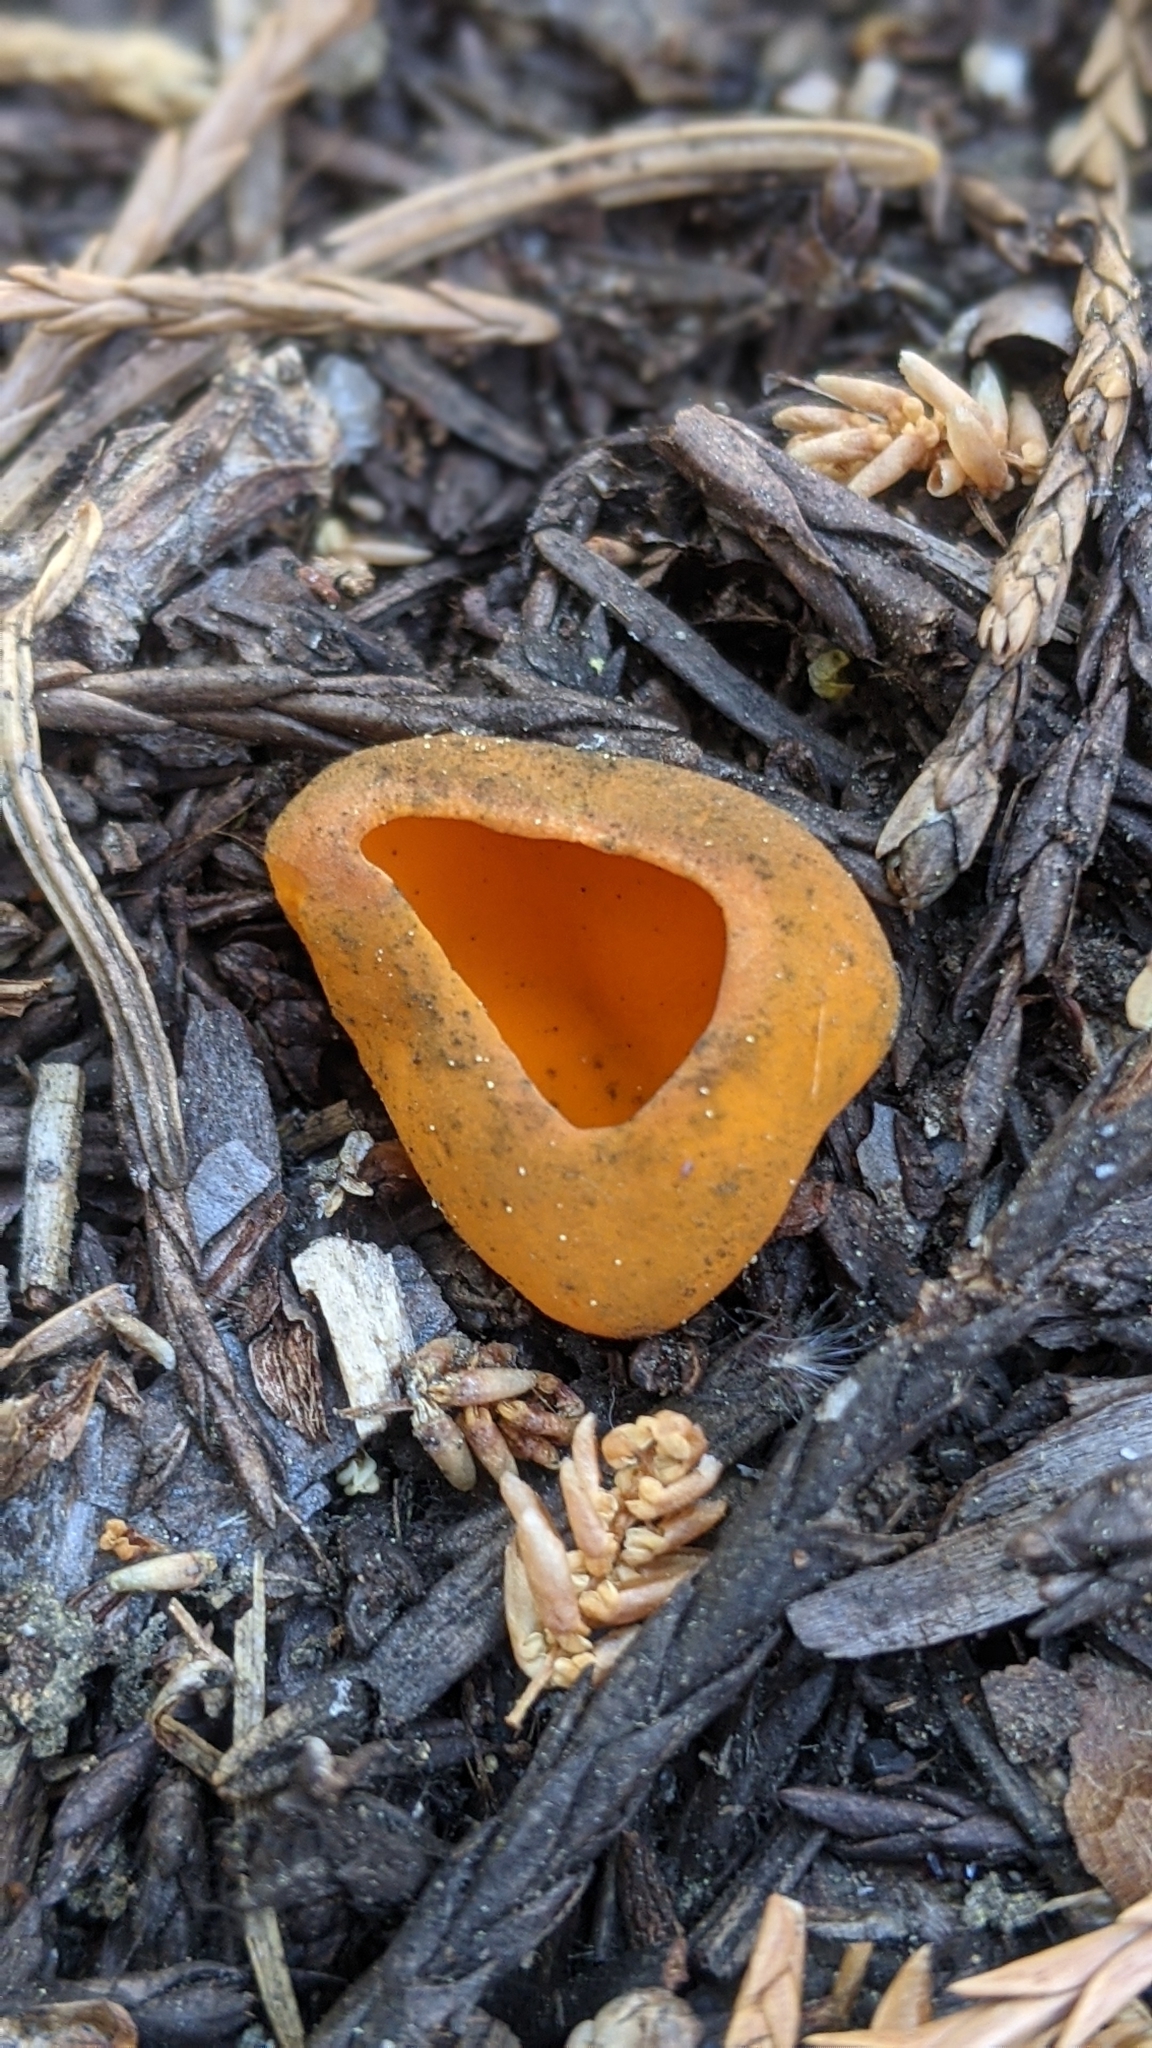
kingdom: Fungi
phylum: Ascomycota
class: Pezizomycetes
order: Pezizales
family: Caloscyphaceae
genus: Caloscypha
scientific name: Caloscypha fulgens
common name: Golden cup
